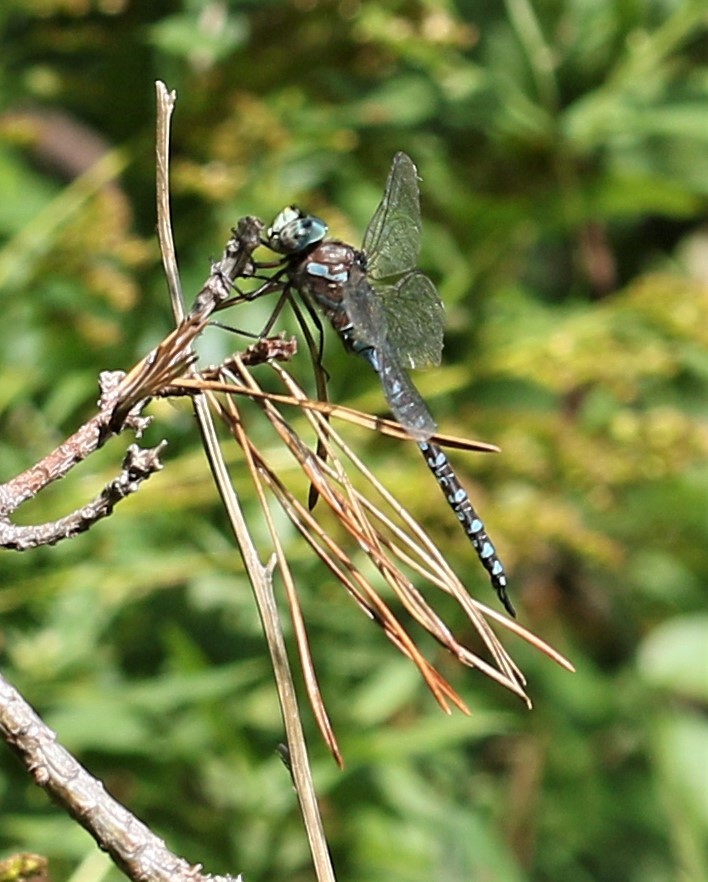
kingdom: Animalia
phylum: Arthropoda
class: Insecta
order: Odonata
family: Aeshnidae
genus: Aeshna
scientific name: Aeshna canadensis
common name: Canada darner
